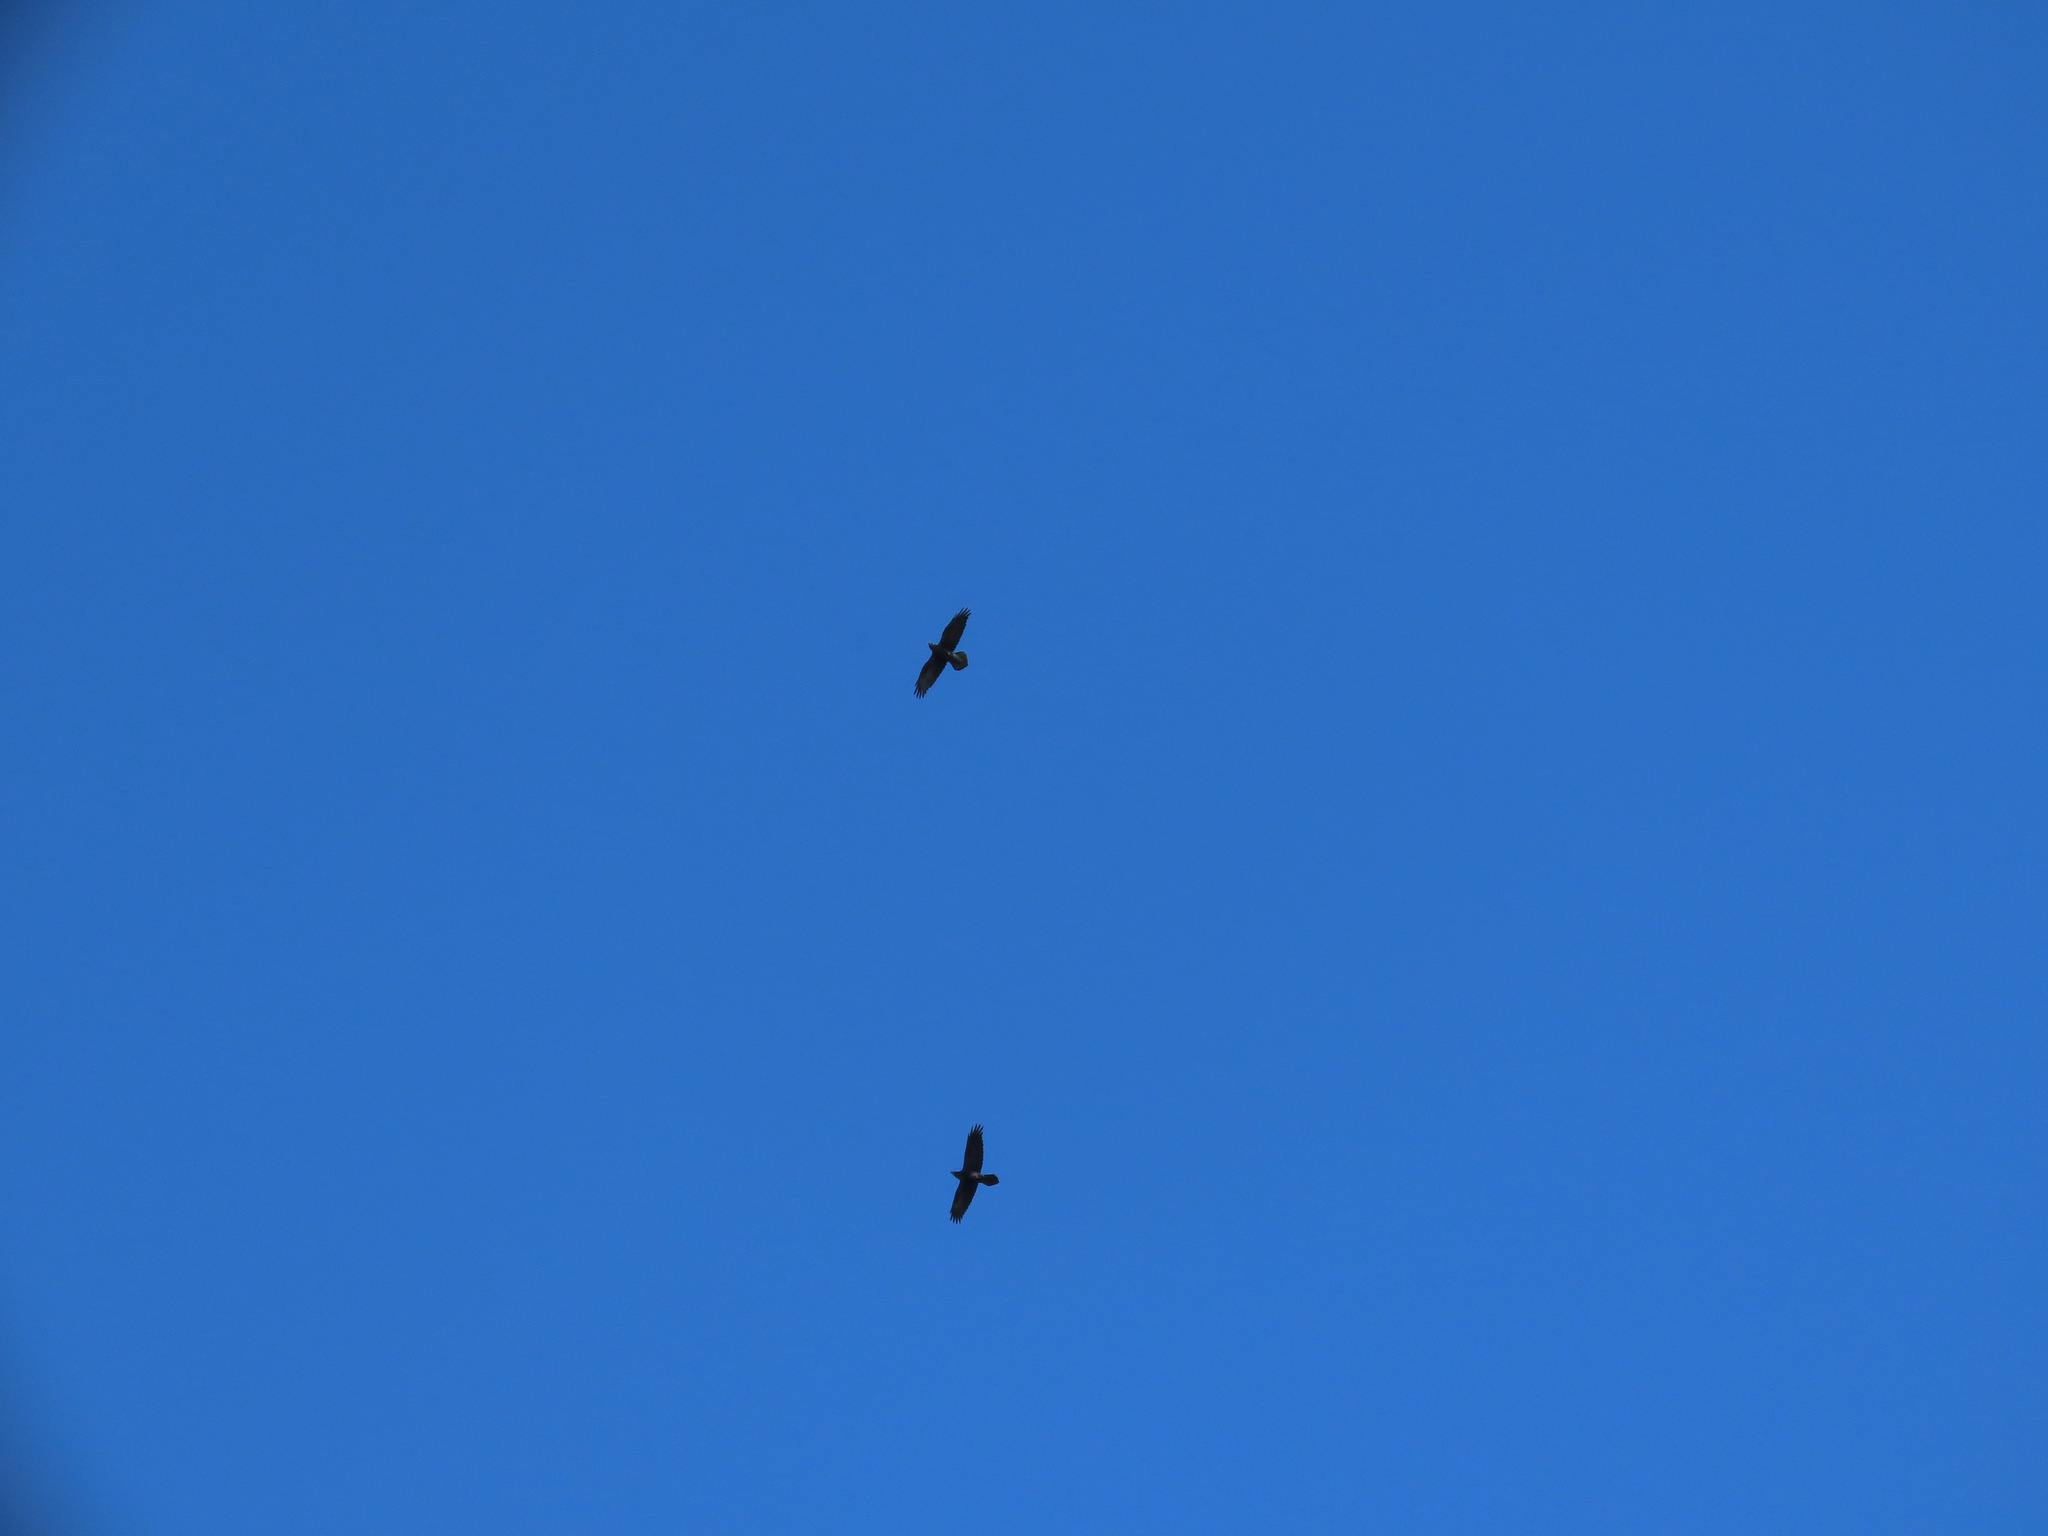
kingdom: Animalia
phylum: Chordata
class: Aves
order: Passeriformes
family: Corvidae
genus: Corvus
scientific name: Corvus corax
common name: Common raven
